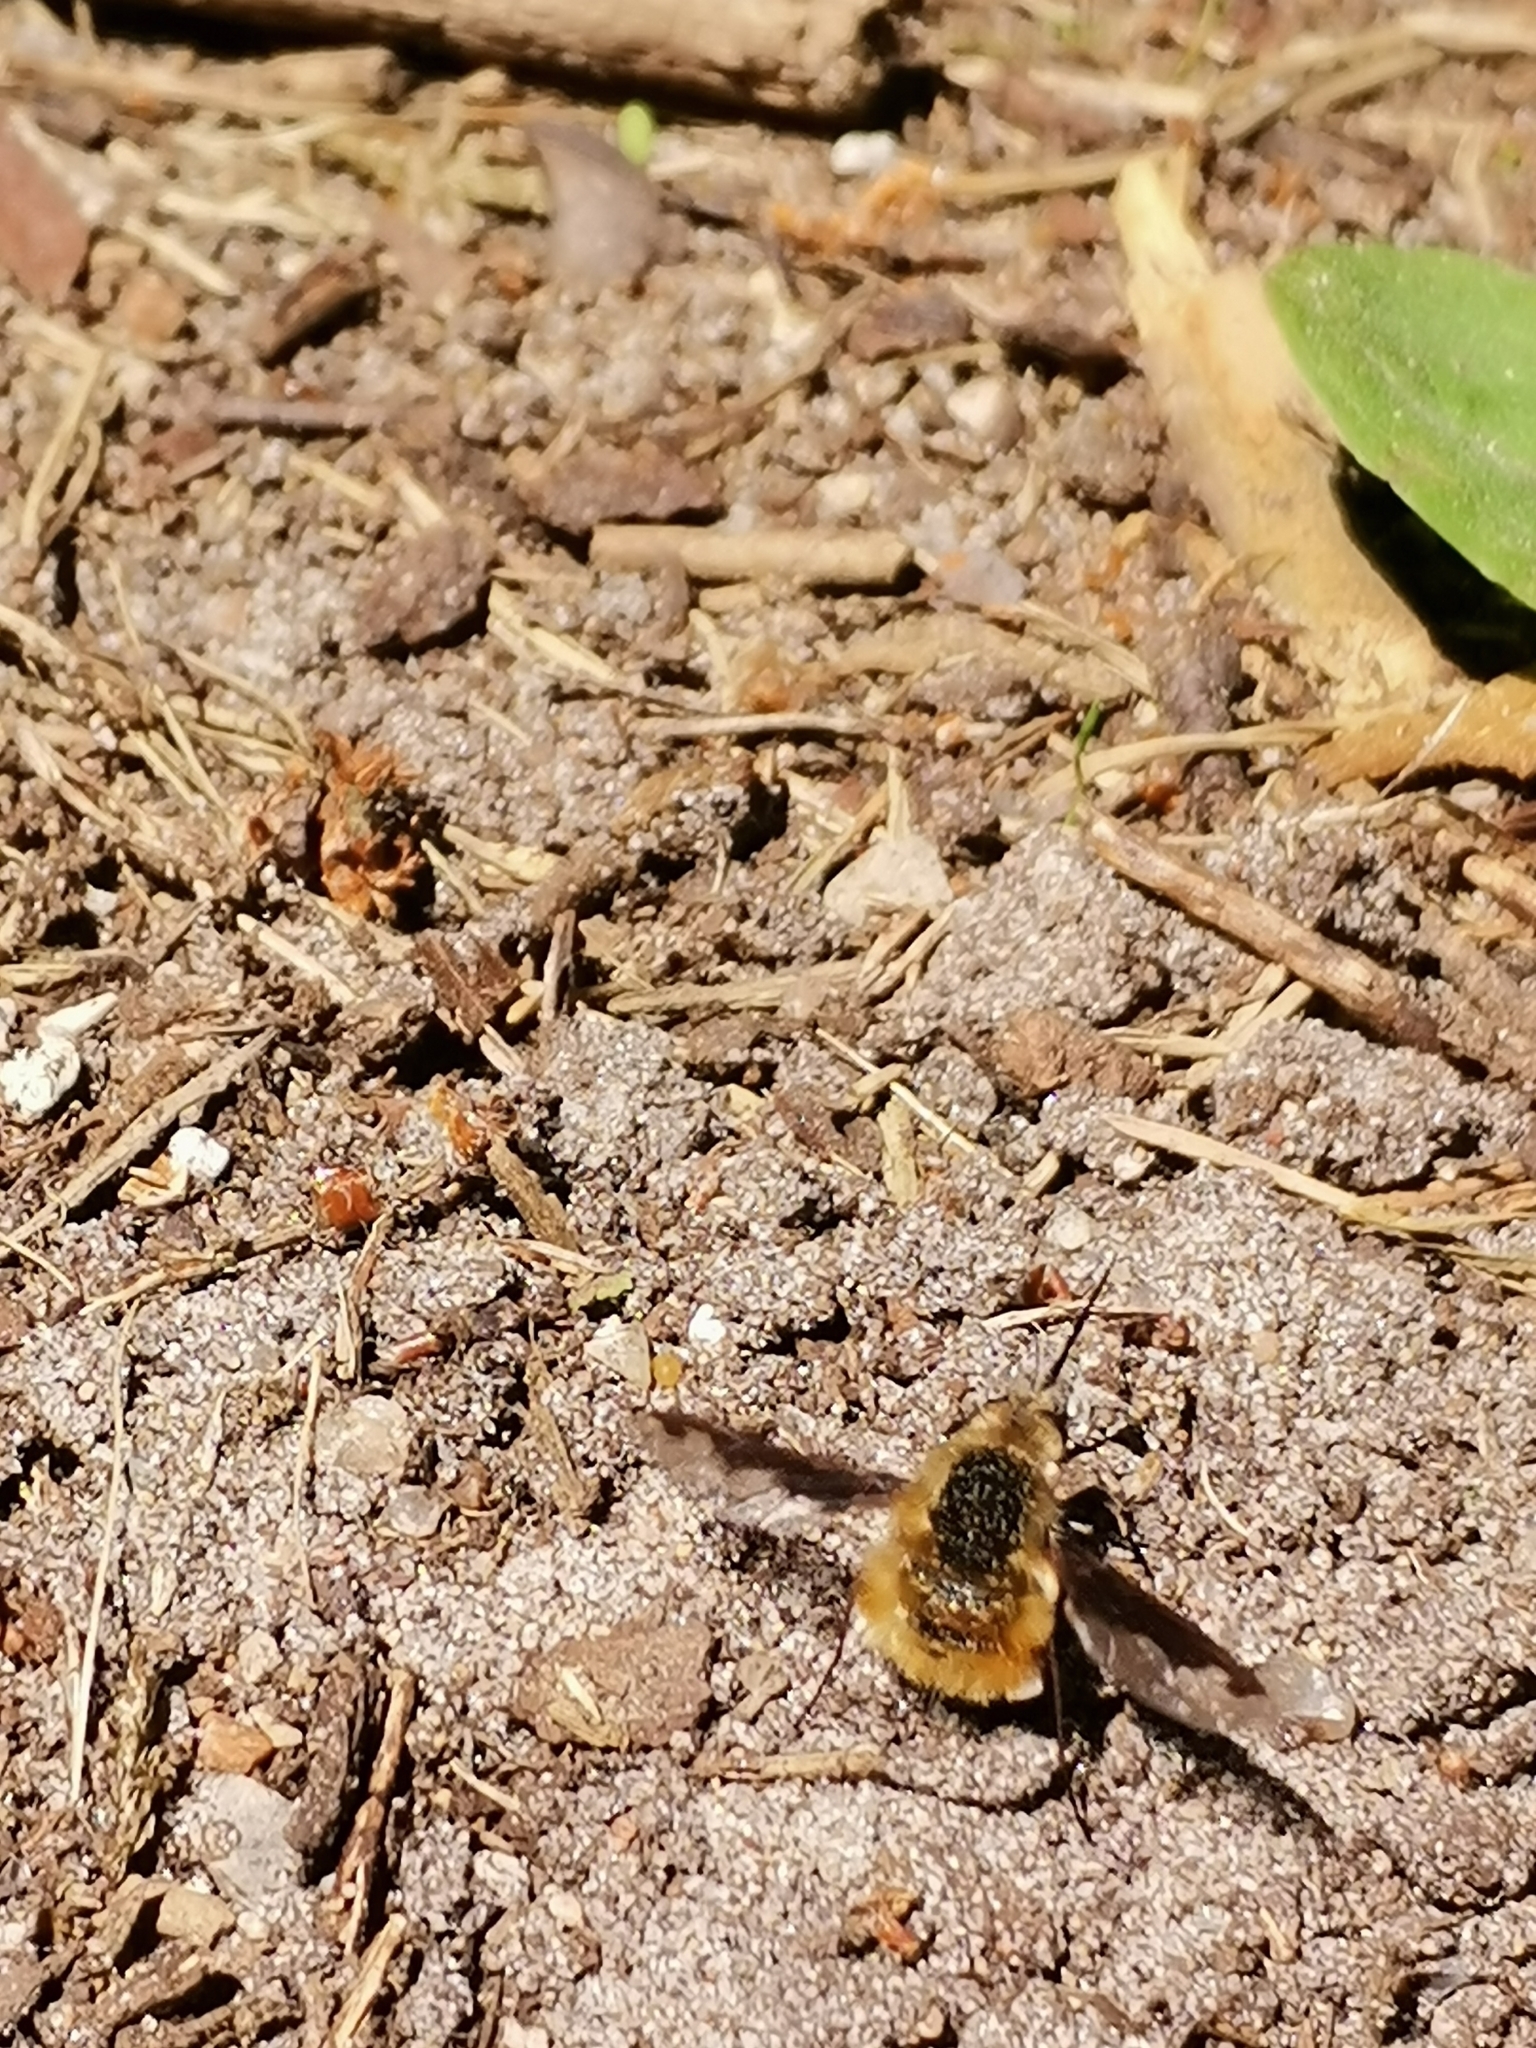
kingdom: Animalia
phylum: Arthropoda
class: Insecta
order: Diptera
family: Bombyliidae
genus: Bombylius
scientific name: Bombylius major
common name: Bee fly
